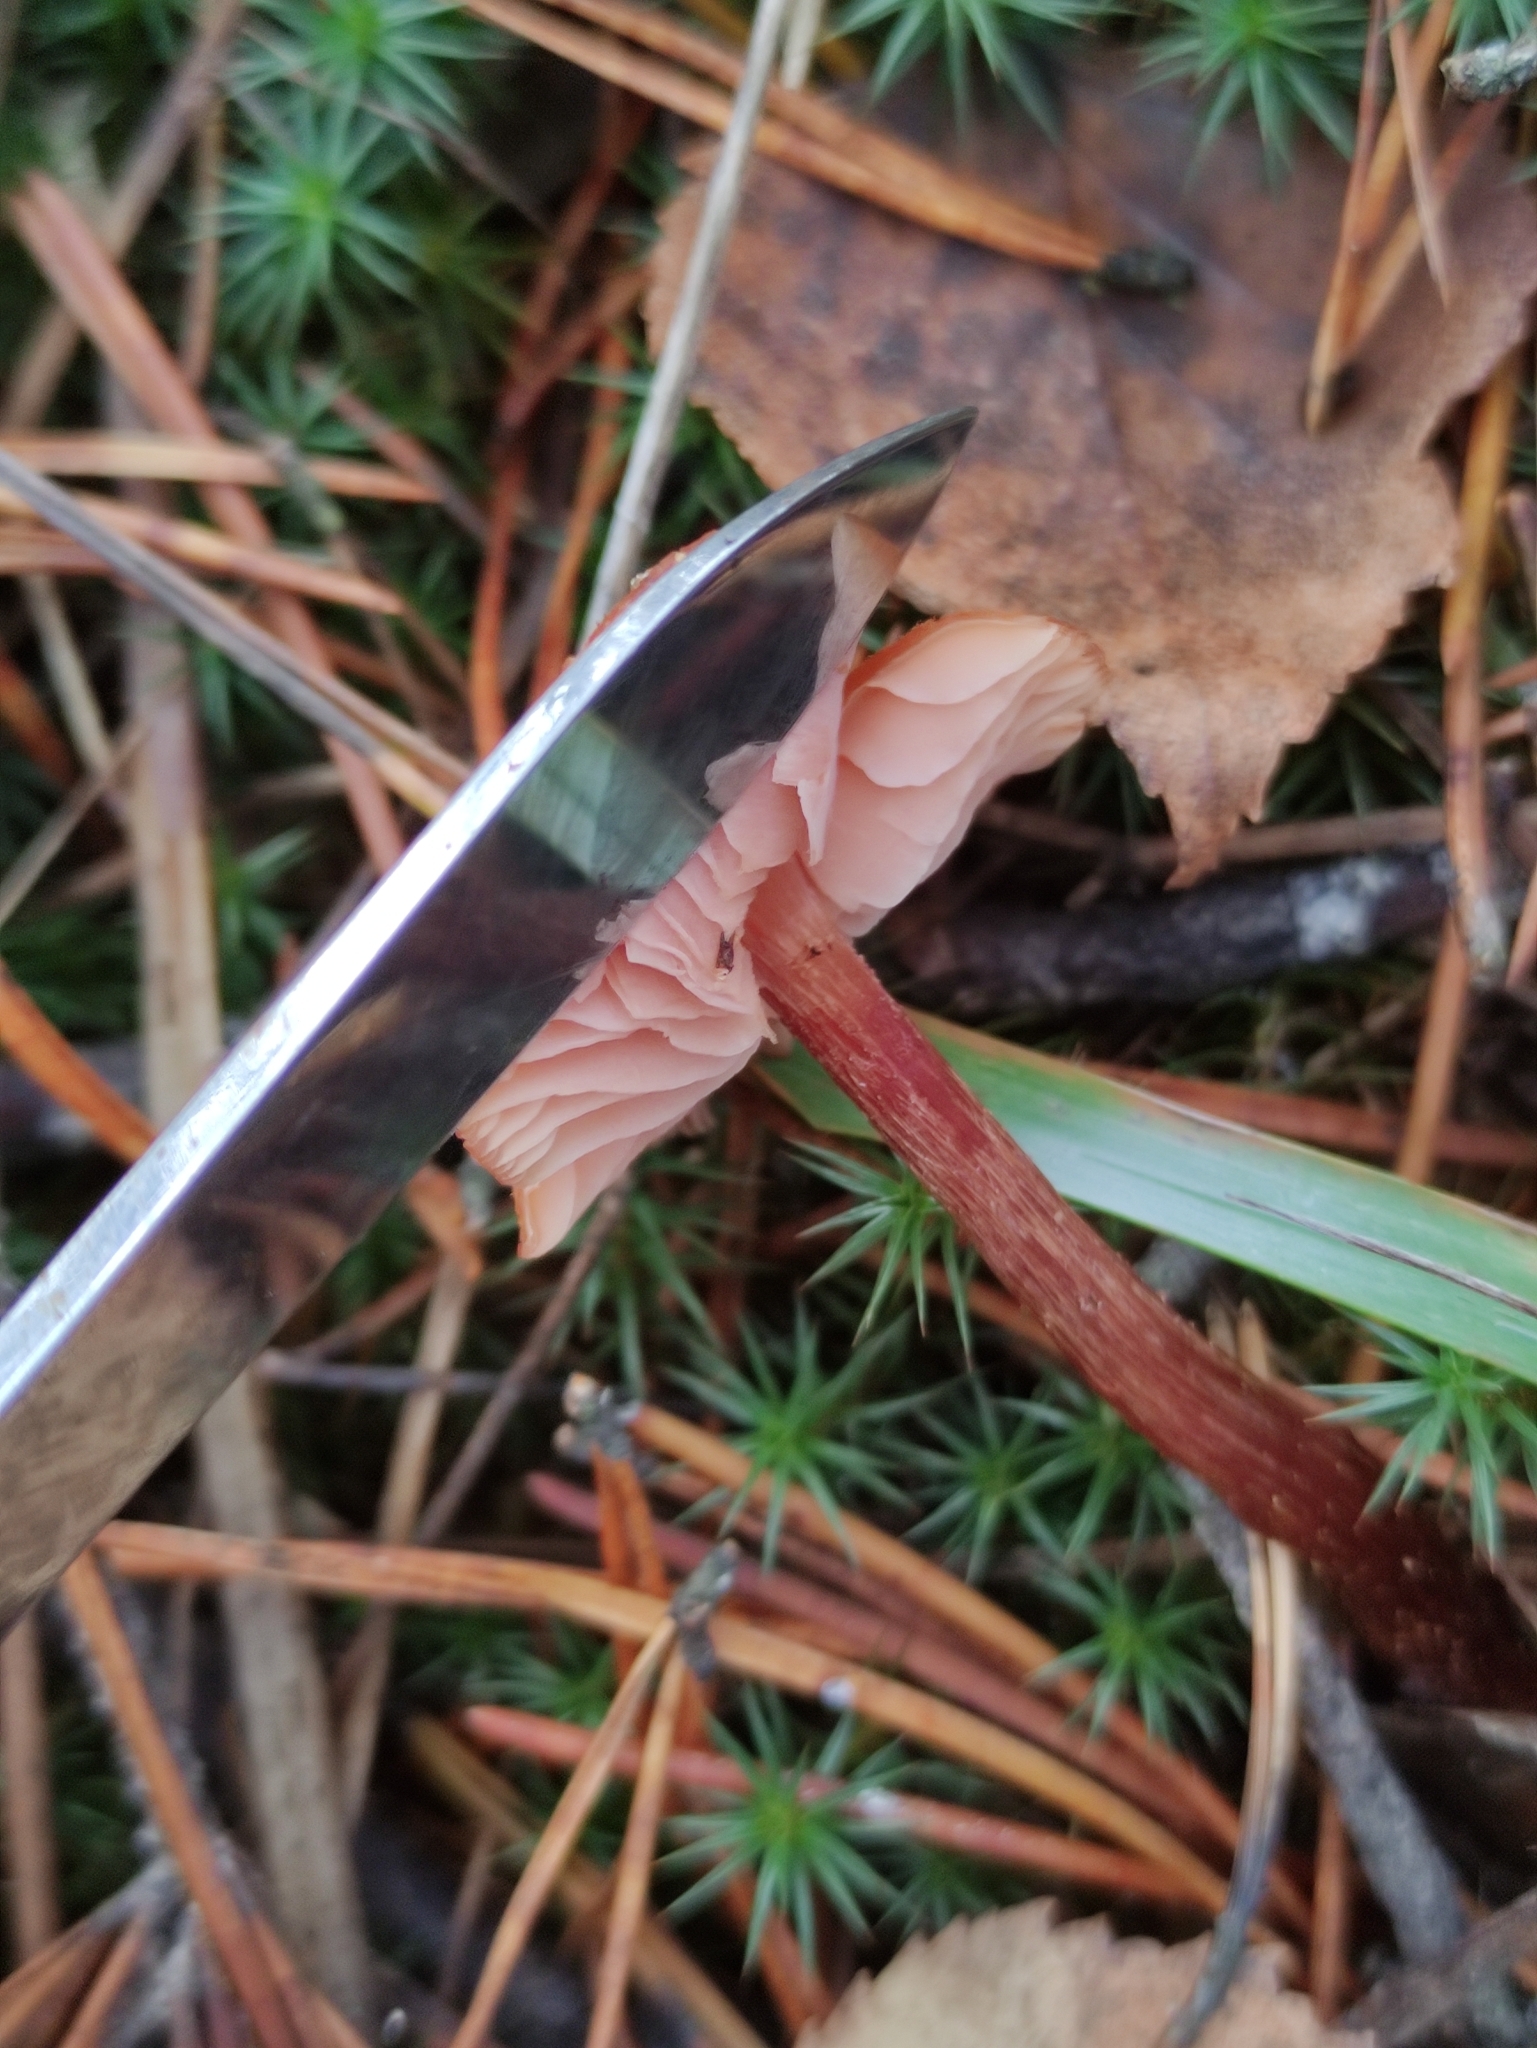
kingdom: Fungi
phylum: Basidiomycota
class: Agaricomycetes
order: Agaricales
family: Hydnangiaceae
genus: Laccaria
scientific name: Laccaria proxima
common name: Scurfy deceiver
